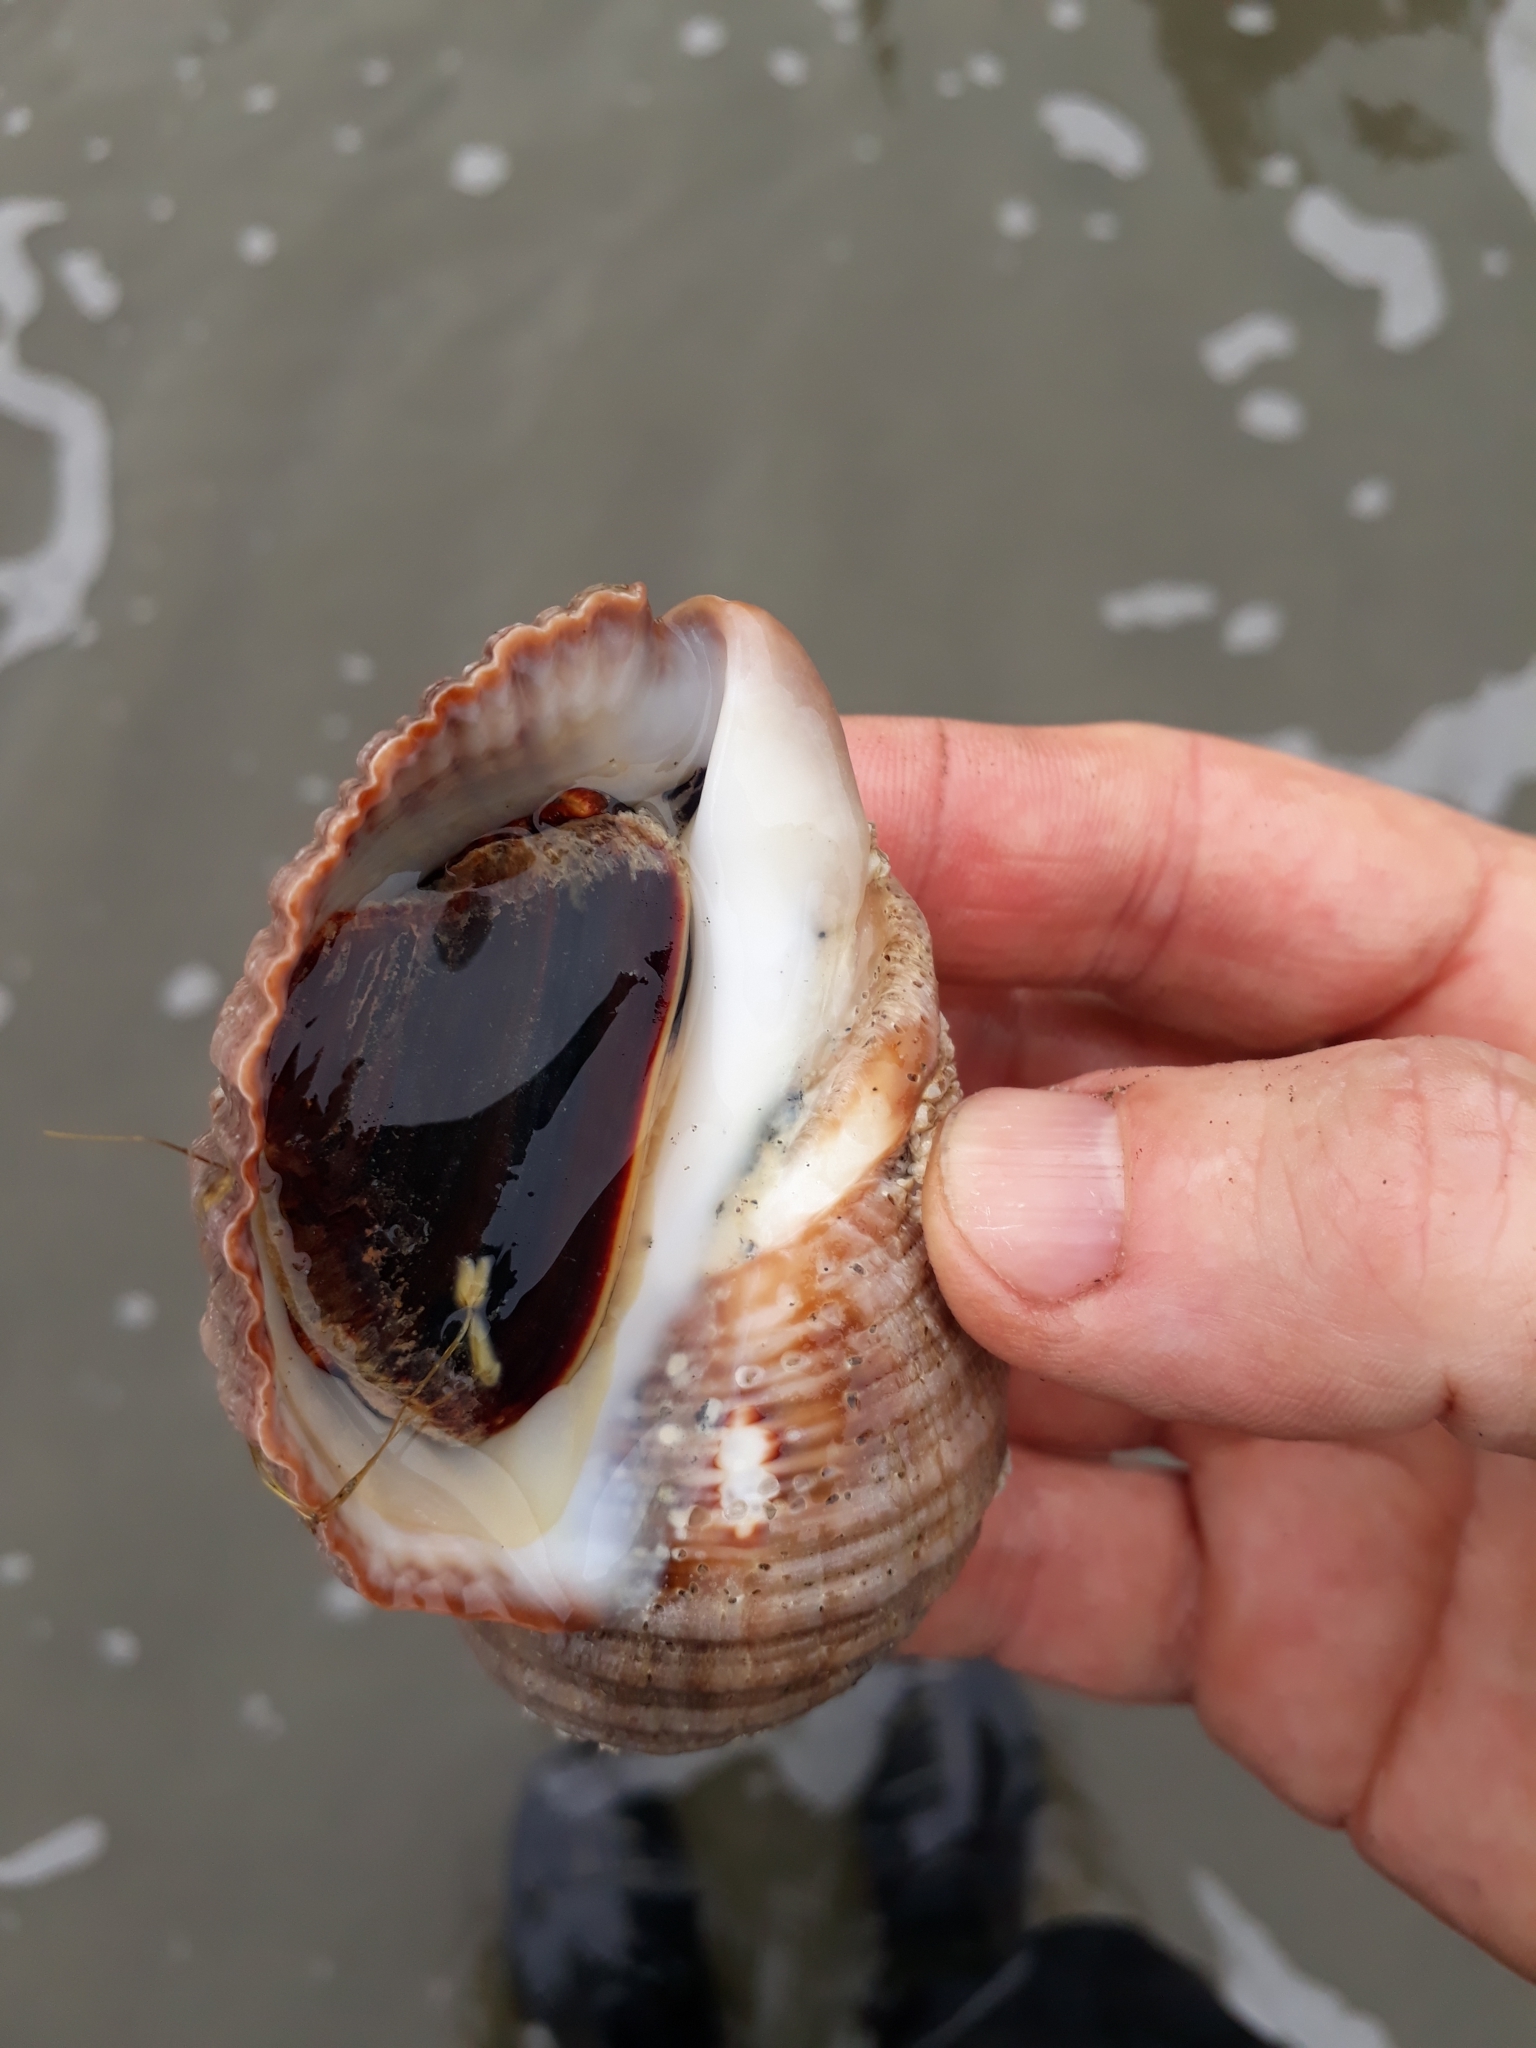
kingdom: Animalia
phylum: Mollusca
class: Gastropoda
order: Neogastropoda
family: Muricidae
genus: Dicathais
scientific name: Dicathais orbita
